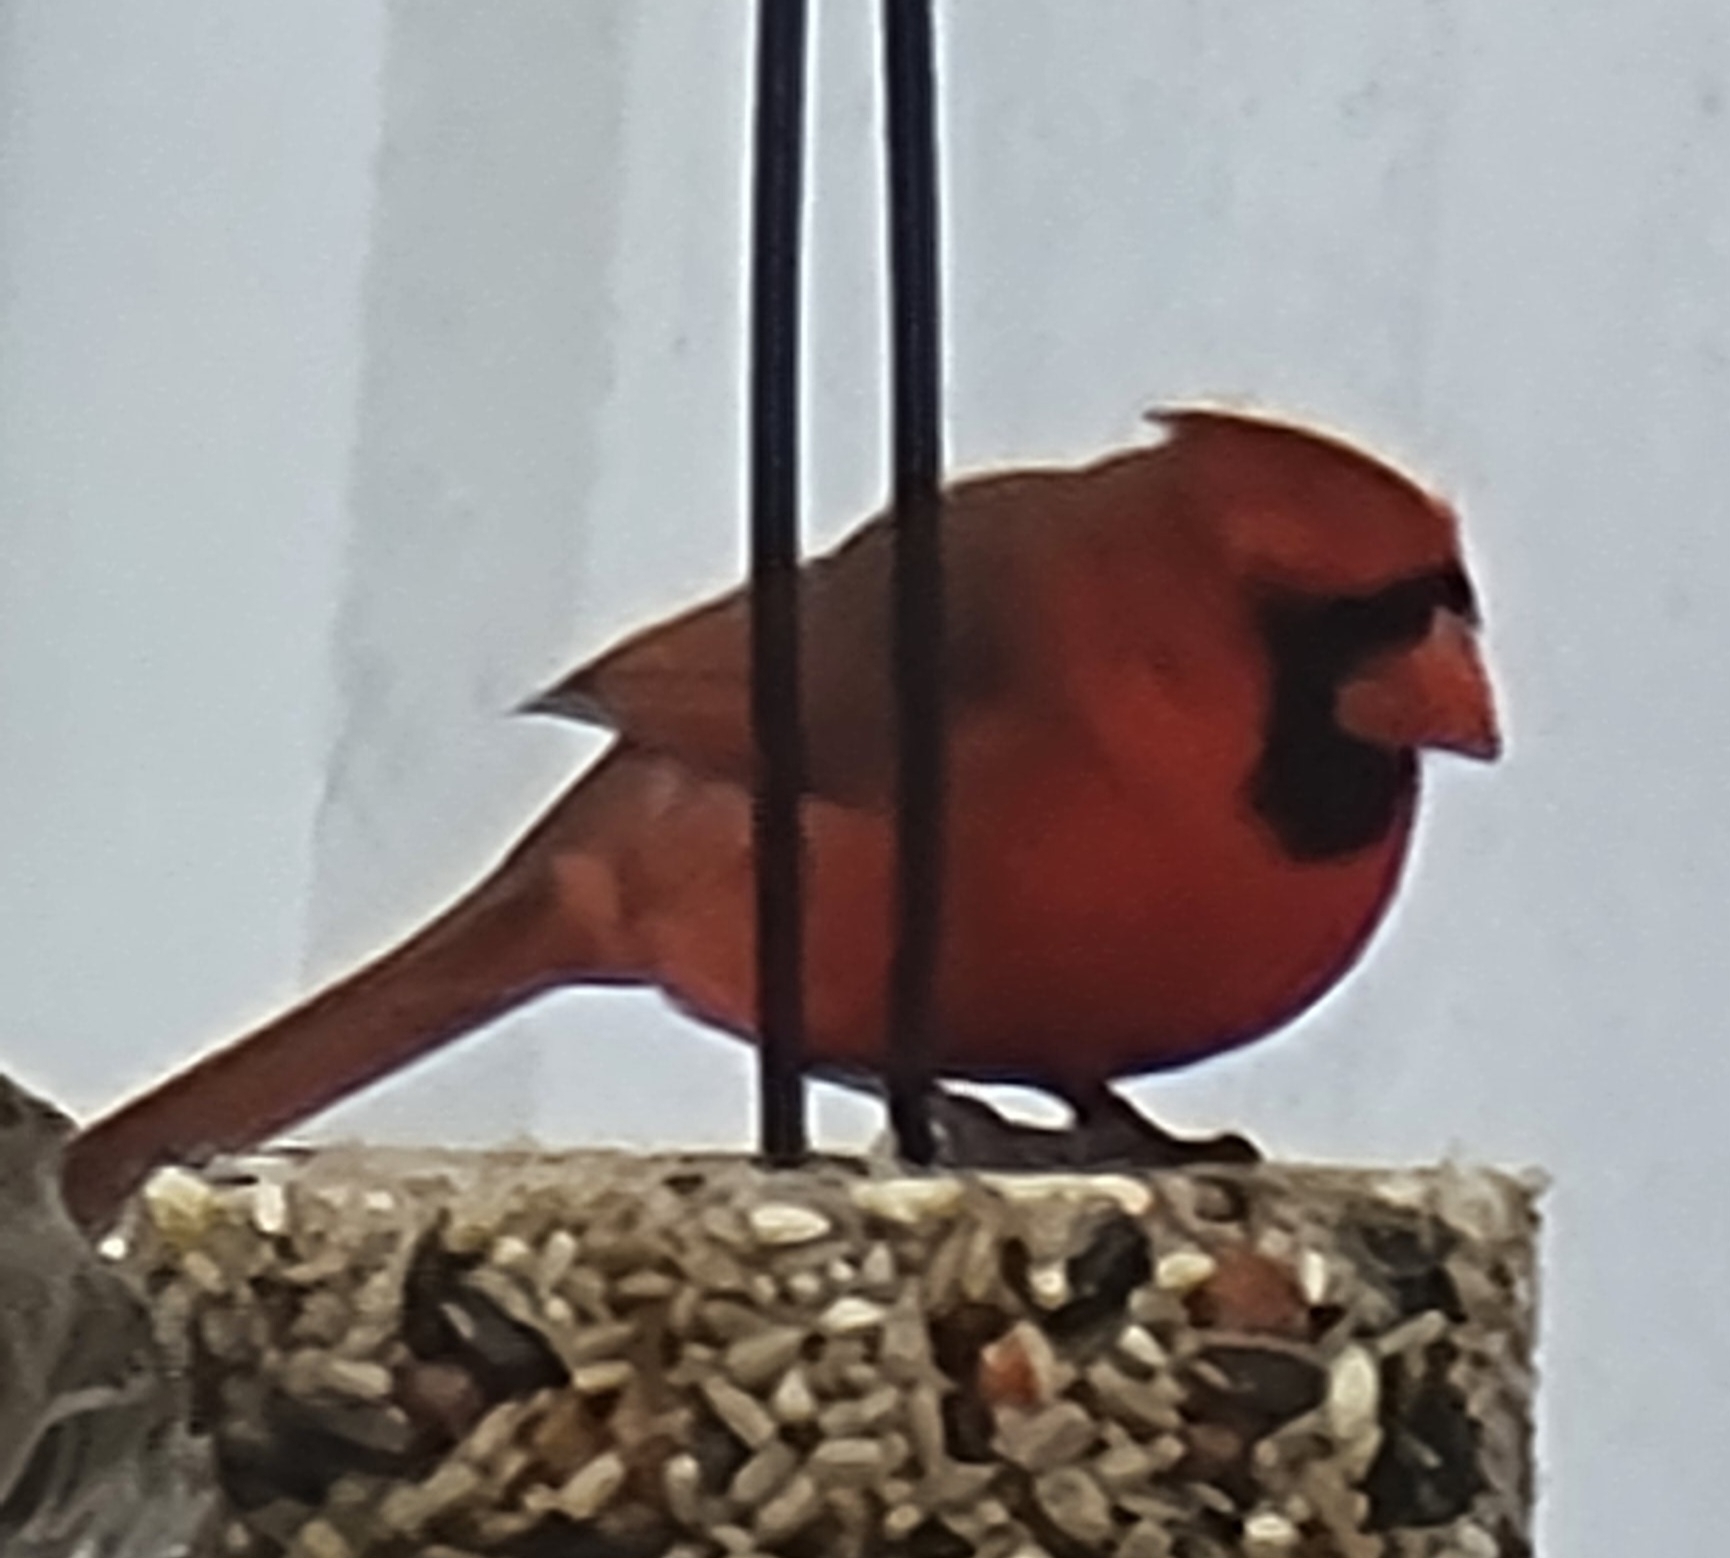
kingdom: Animalia
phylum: Chordata
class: Aves
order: Passeriformes
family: Cardinalidae
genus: Cardinalis
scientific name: Cardinalis cardinalis
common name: Northern cardinal
